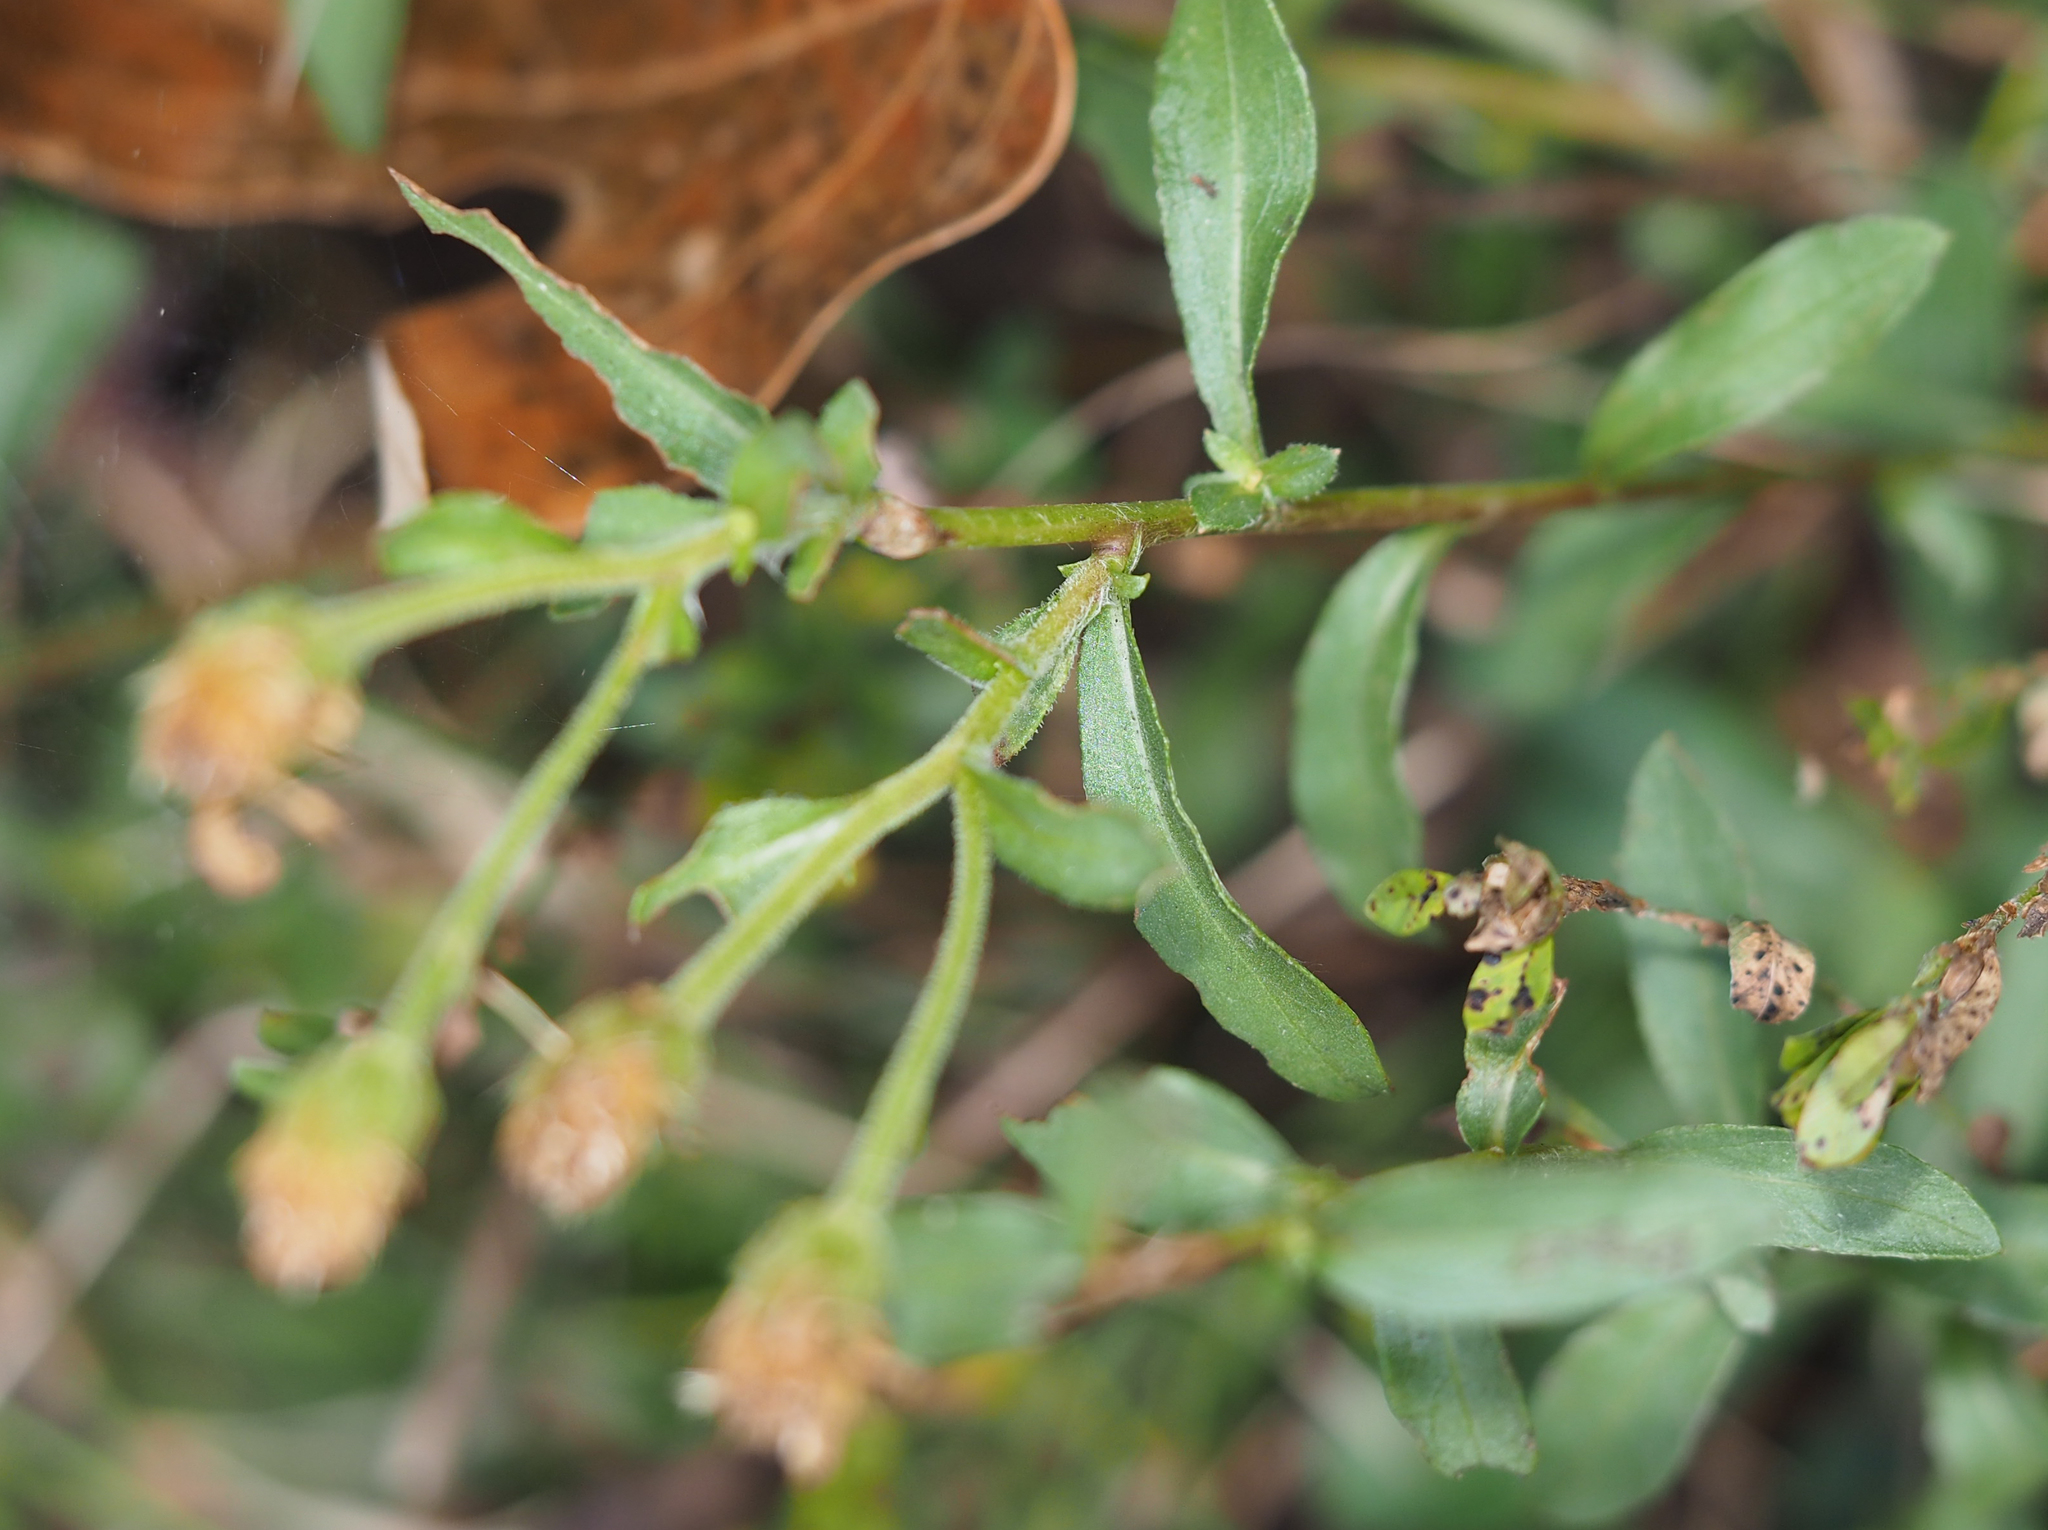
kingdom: Plantae
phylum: Tracheophyta
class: Magnoliopsida
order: Asterales
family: Asteraceae
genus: Chrysopsis
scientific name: Chrysopsis mariana
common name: Maryland golden-aster
